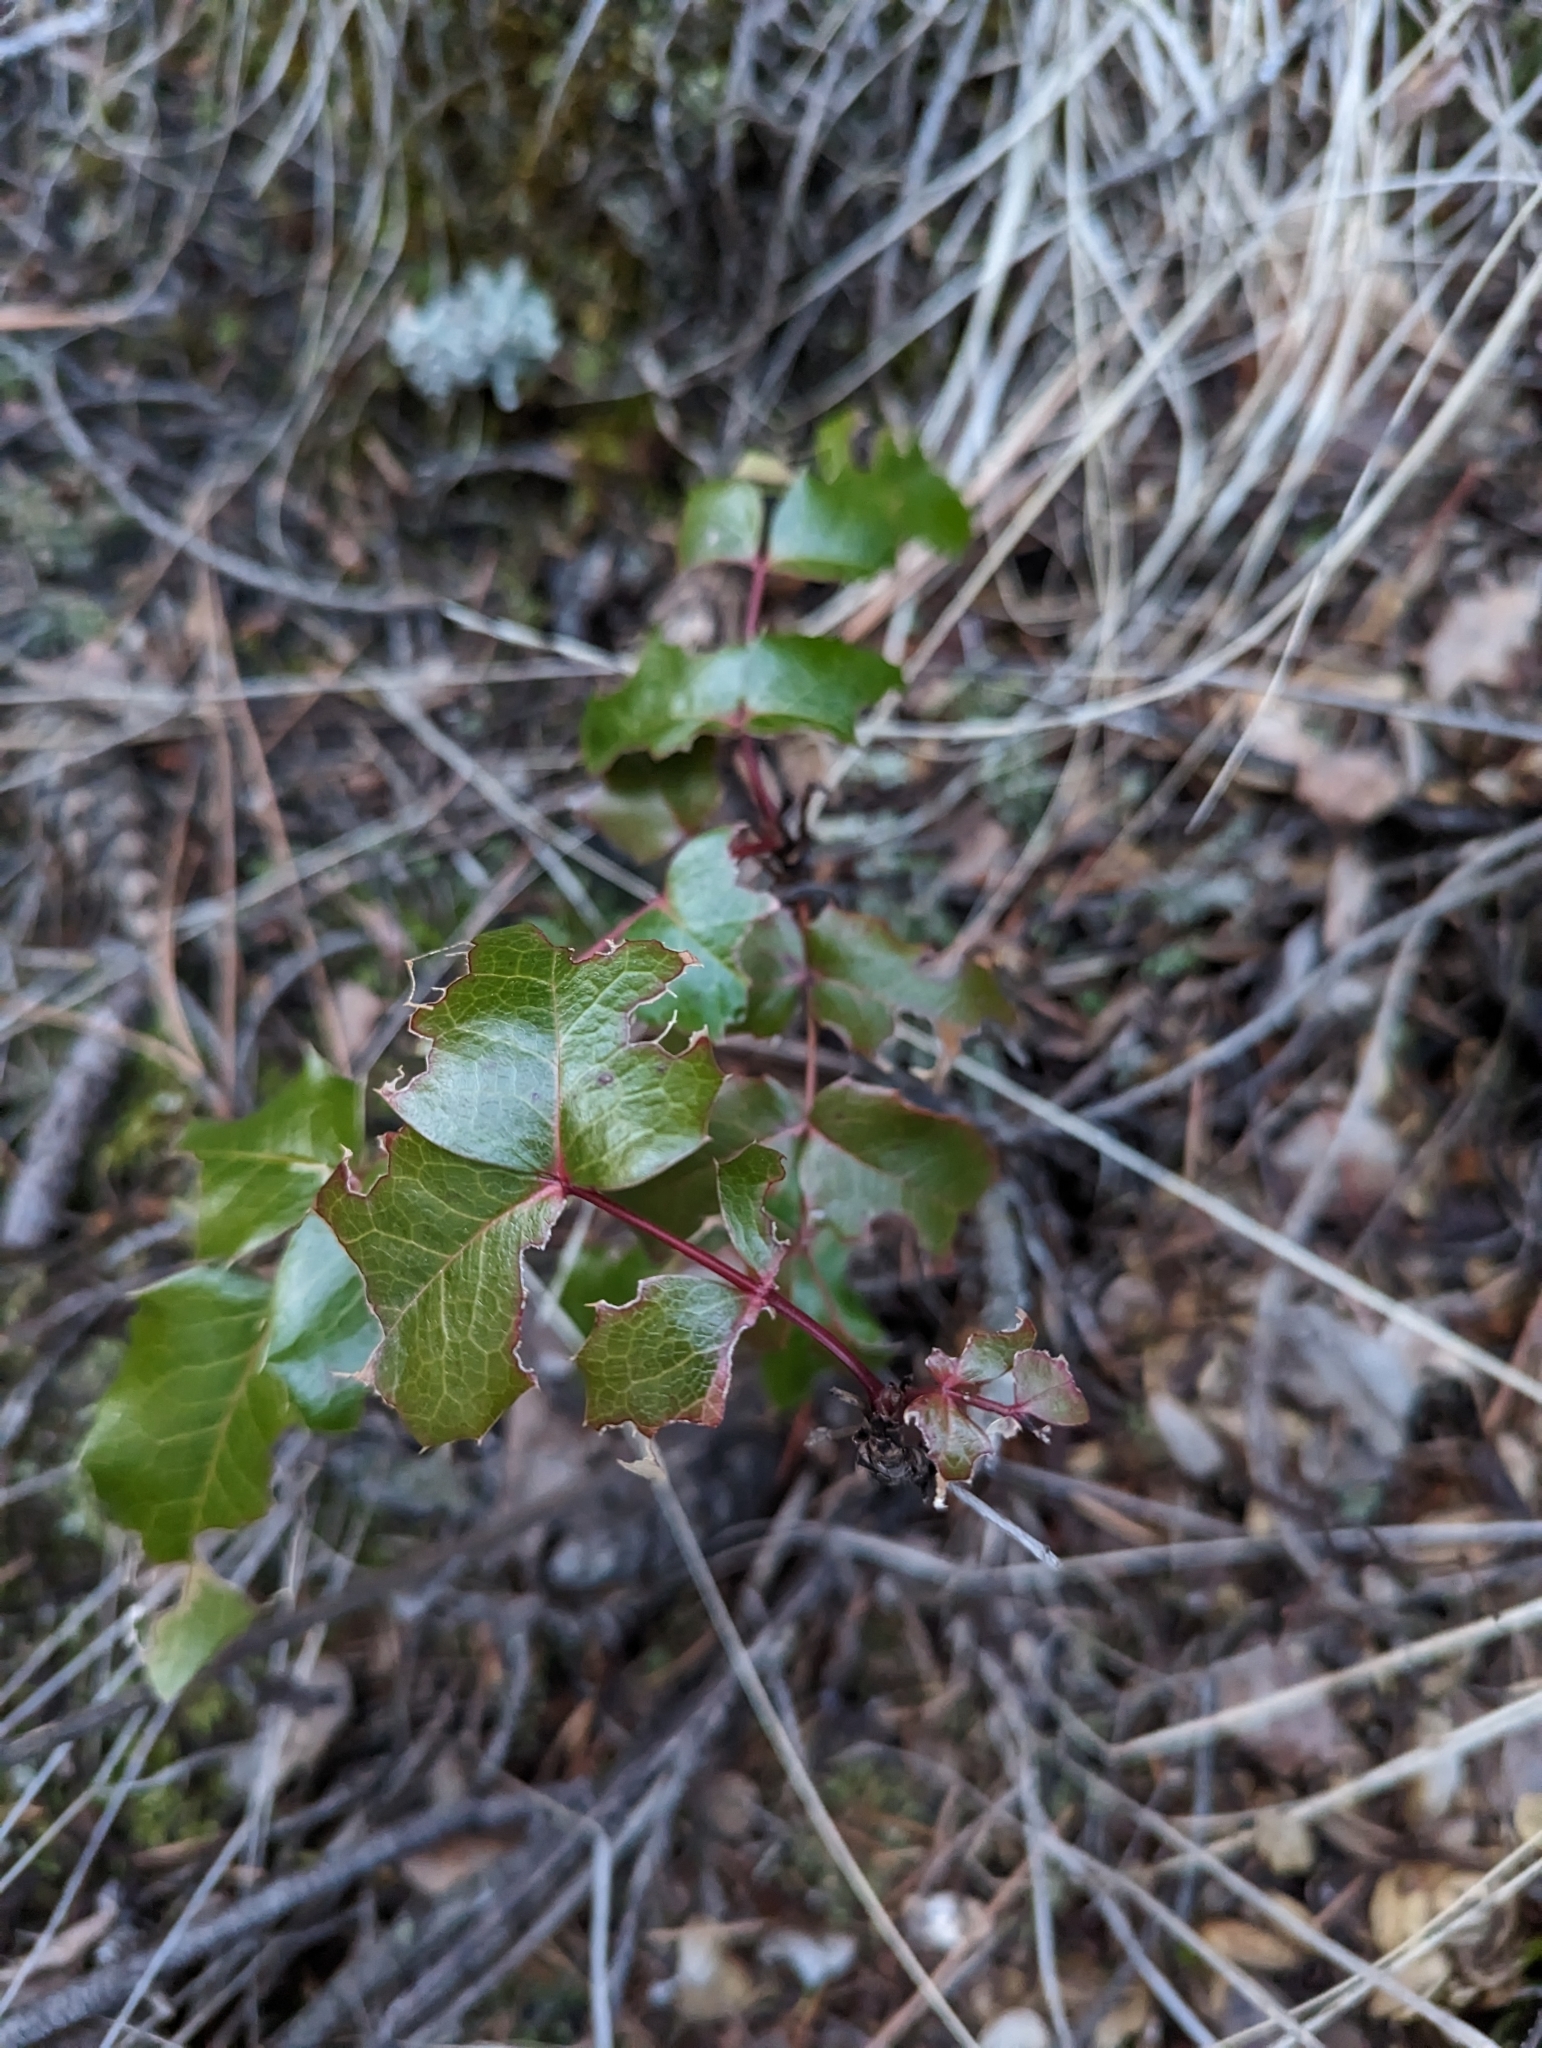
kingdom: Plantae
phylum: Tracheophyta
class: Magnoliopsida
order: Ranunculales
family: Berberidaceae
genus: Mahonia
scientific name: Mahonia aquifolium
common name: Oregon-grape
